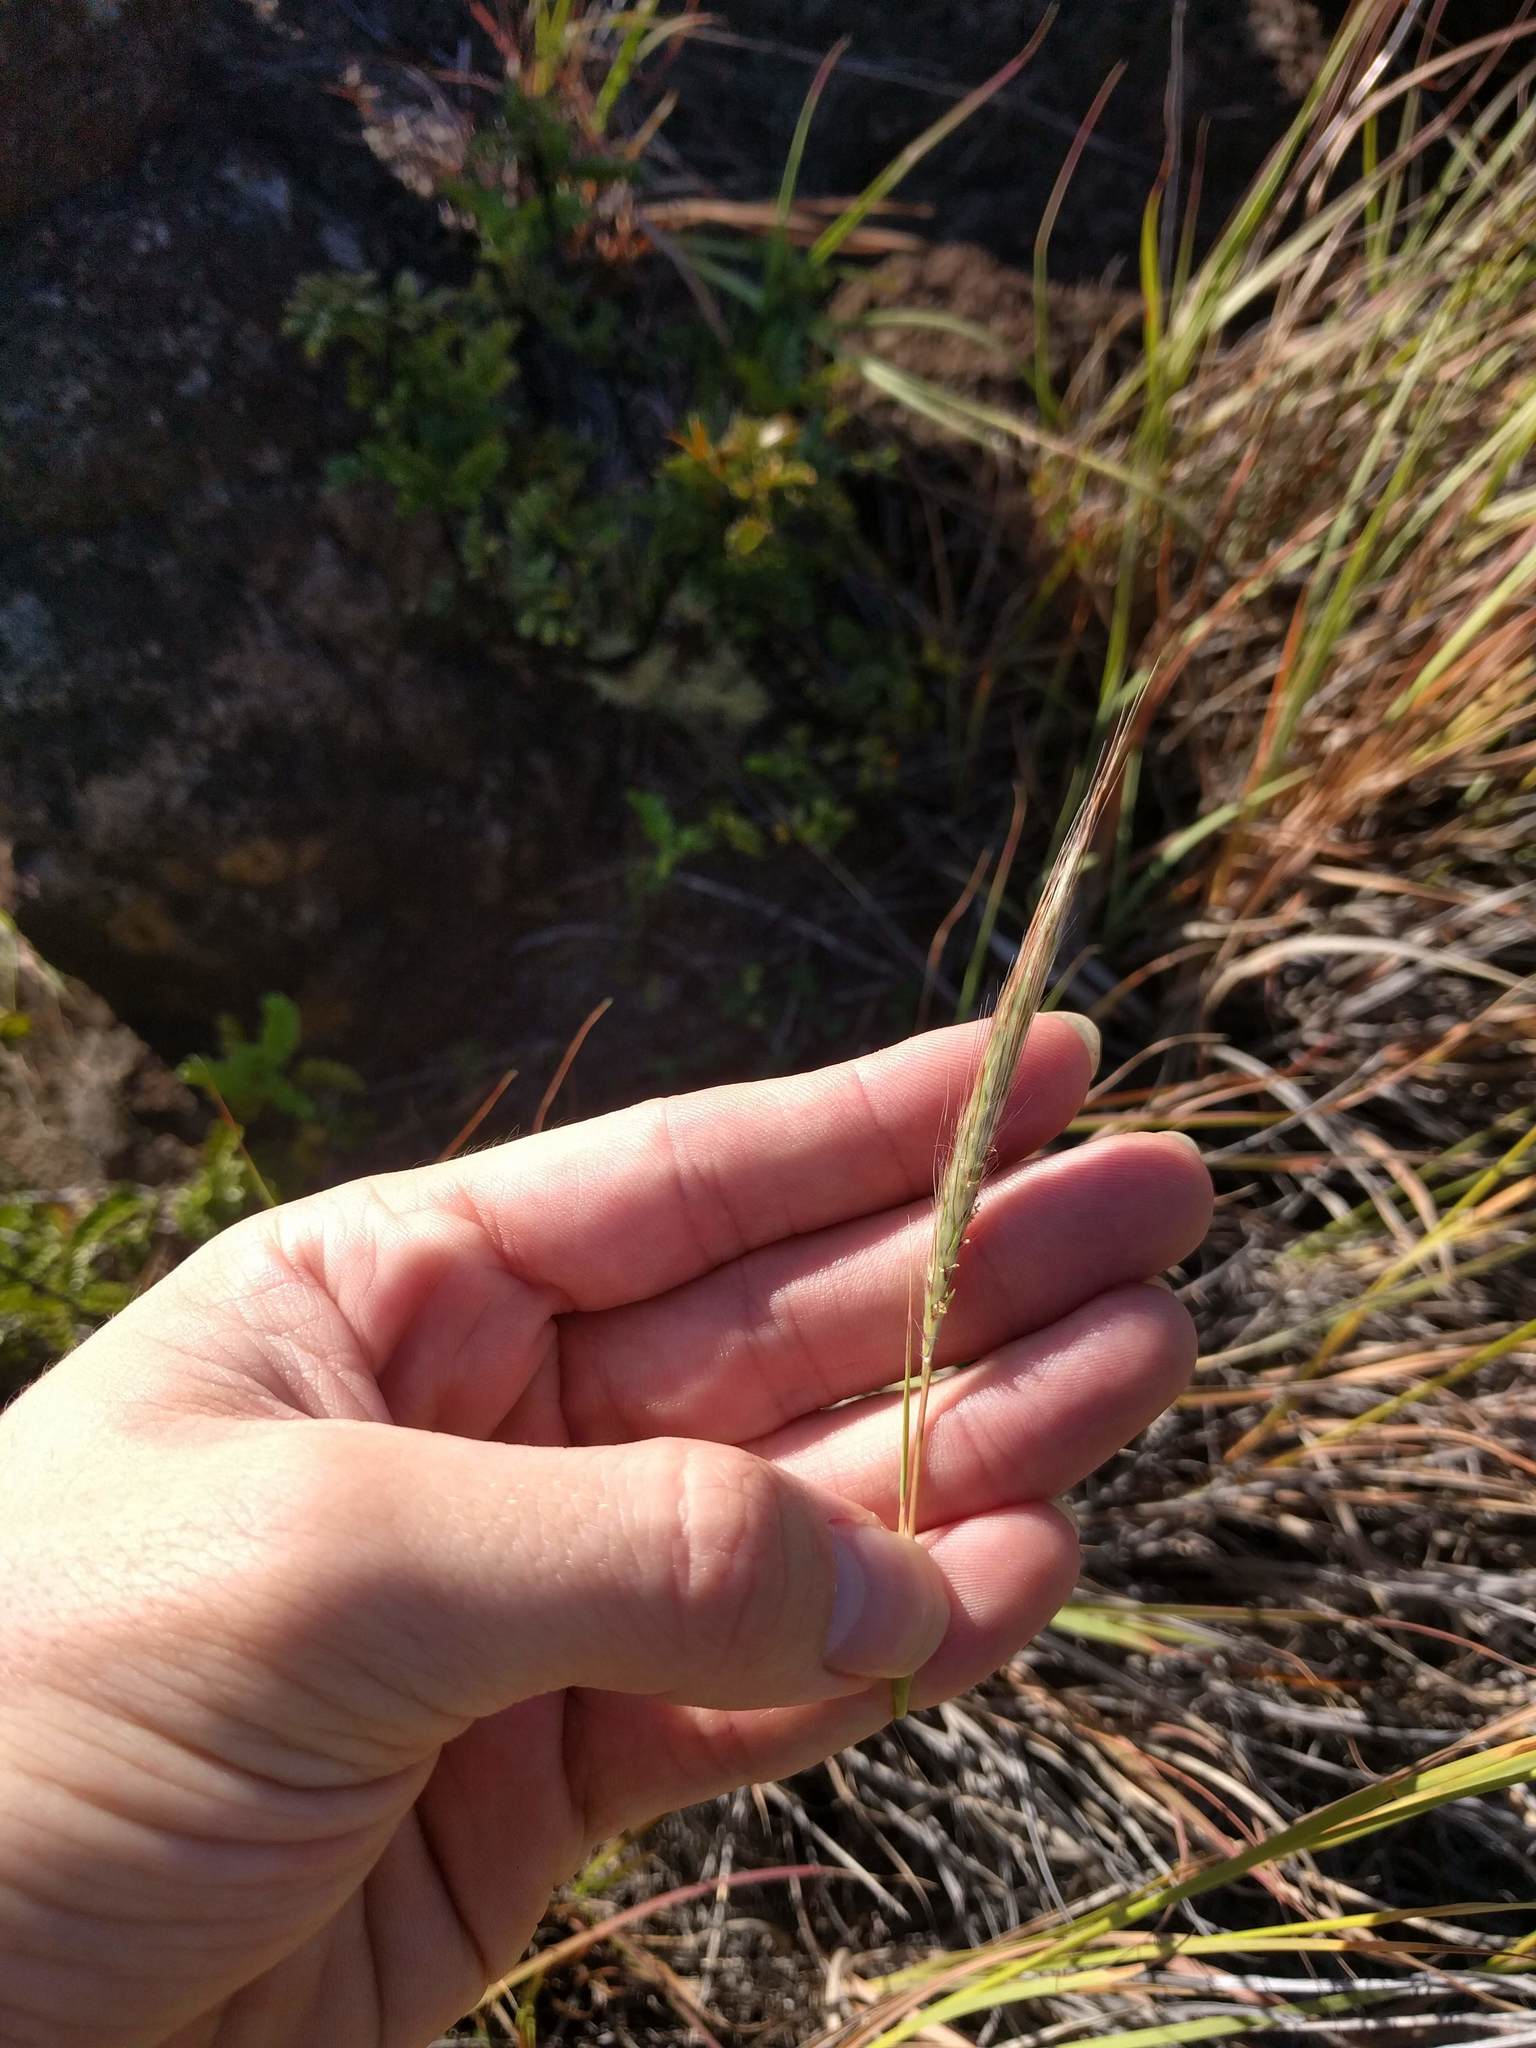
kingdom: Plantae
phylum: Tracheophyta
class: Liliopsida
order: Poales
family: Poaceae
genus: Heteropogon
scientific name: Heteropogon contortus
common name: Tanglehead
